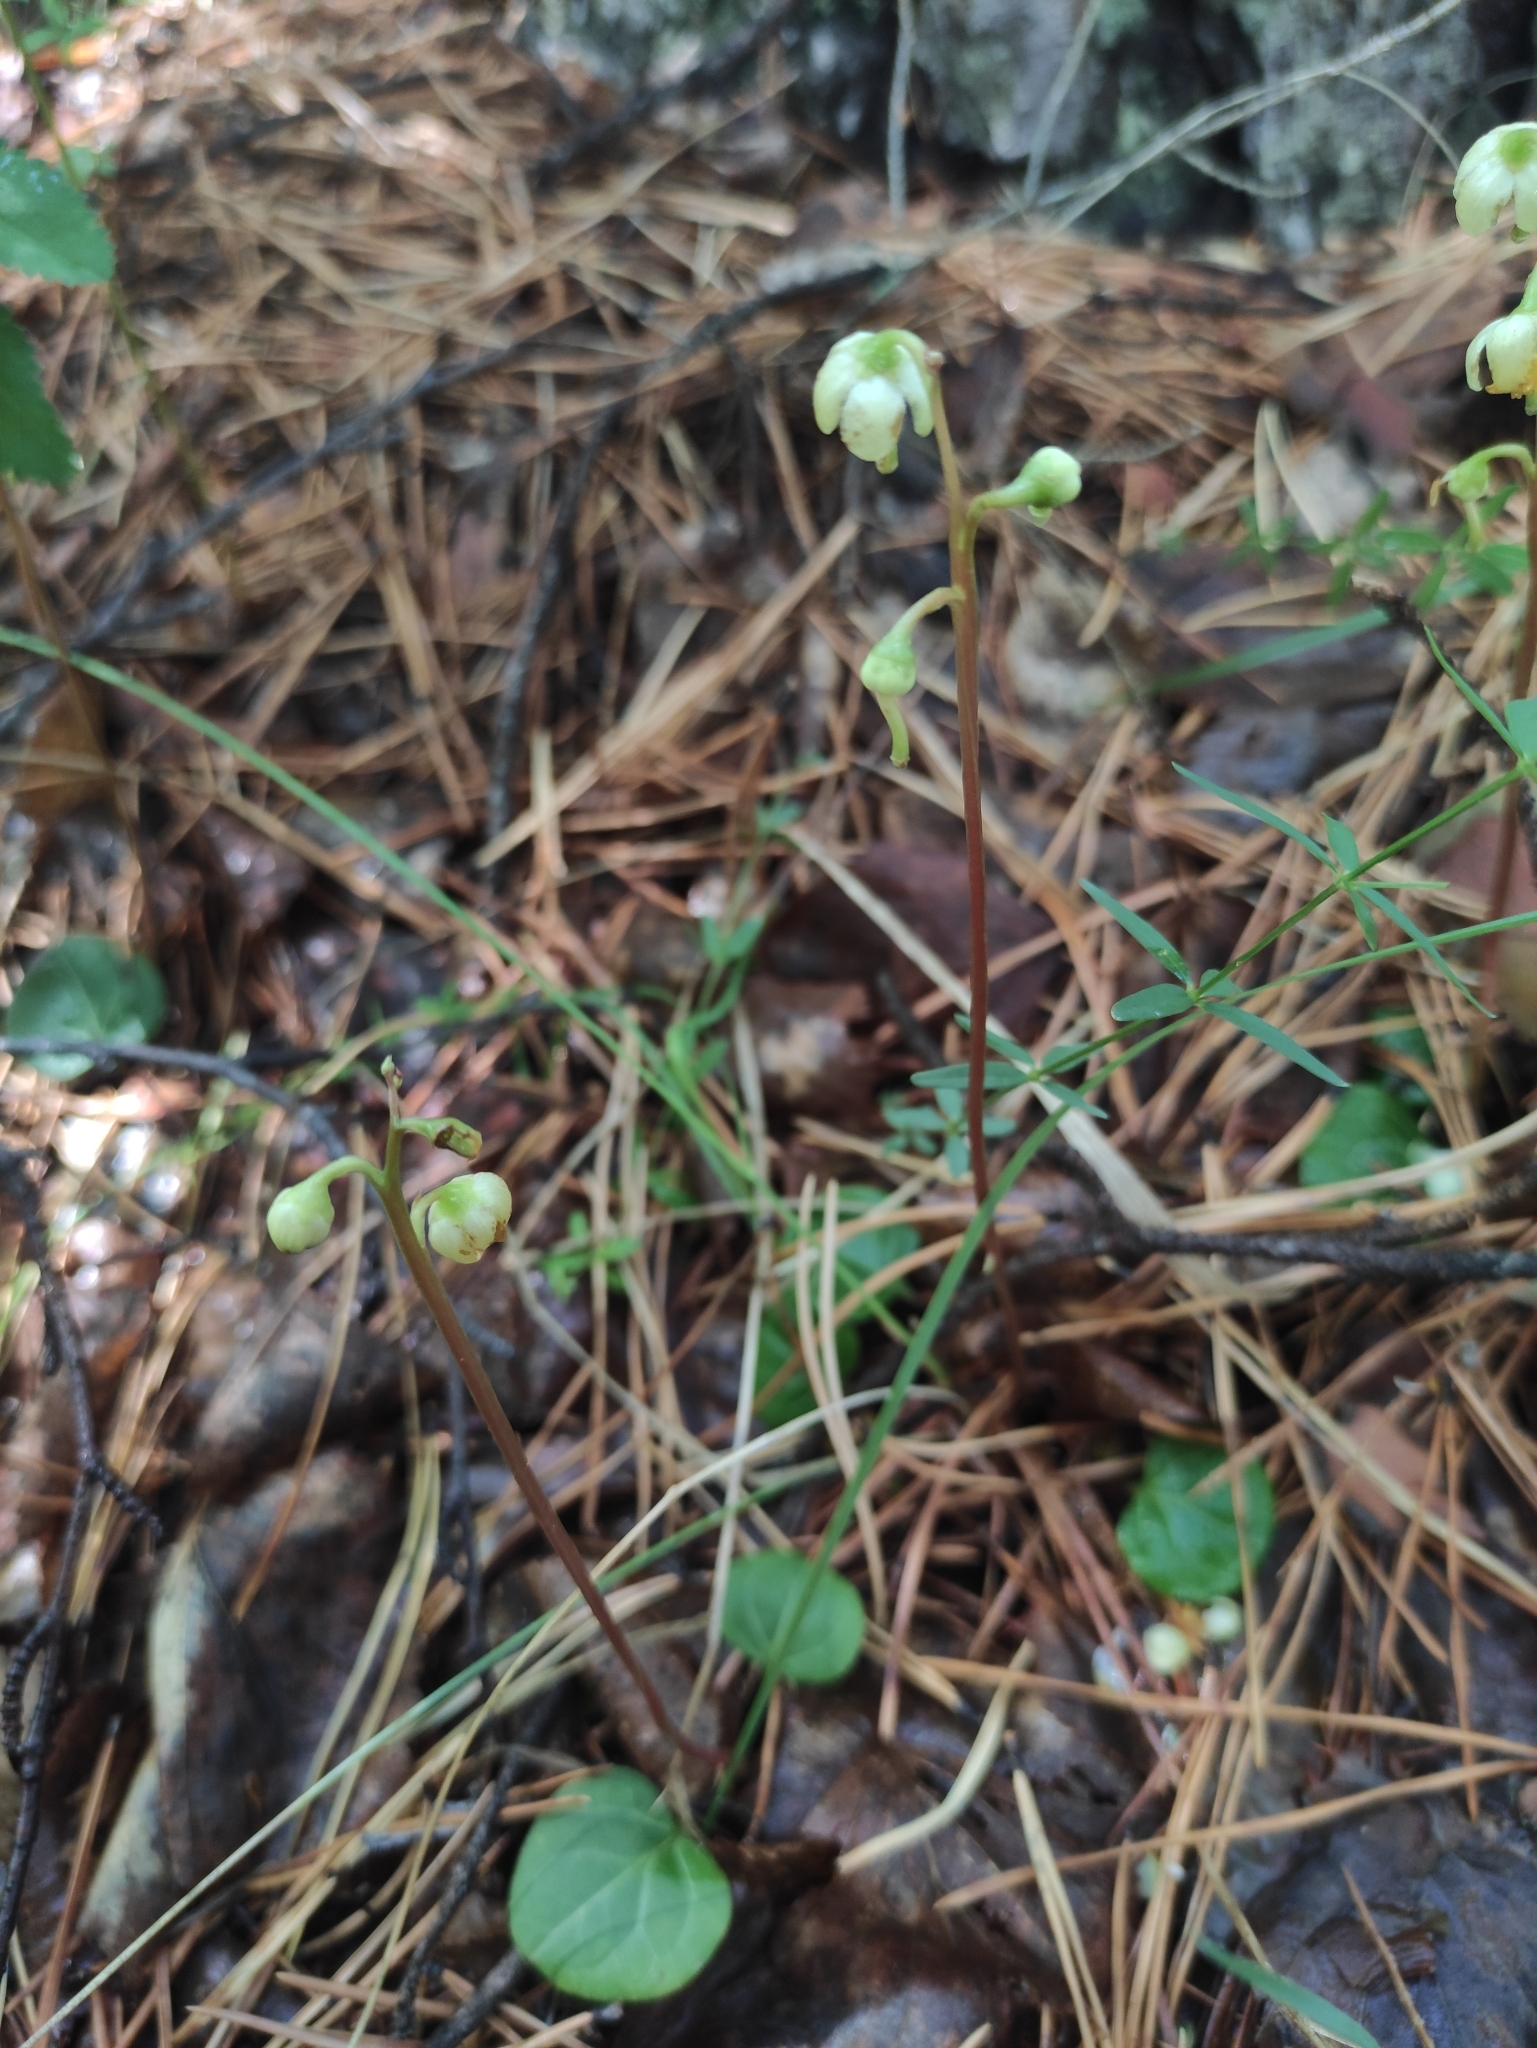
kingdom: Plantae
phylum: Tracheophyta
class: Magnoliopsida
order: Ericales
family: Ericaceae
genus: Pyrola
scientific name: Pyrola chlorantha
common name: Green wintergreen
